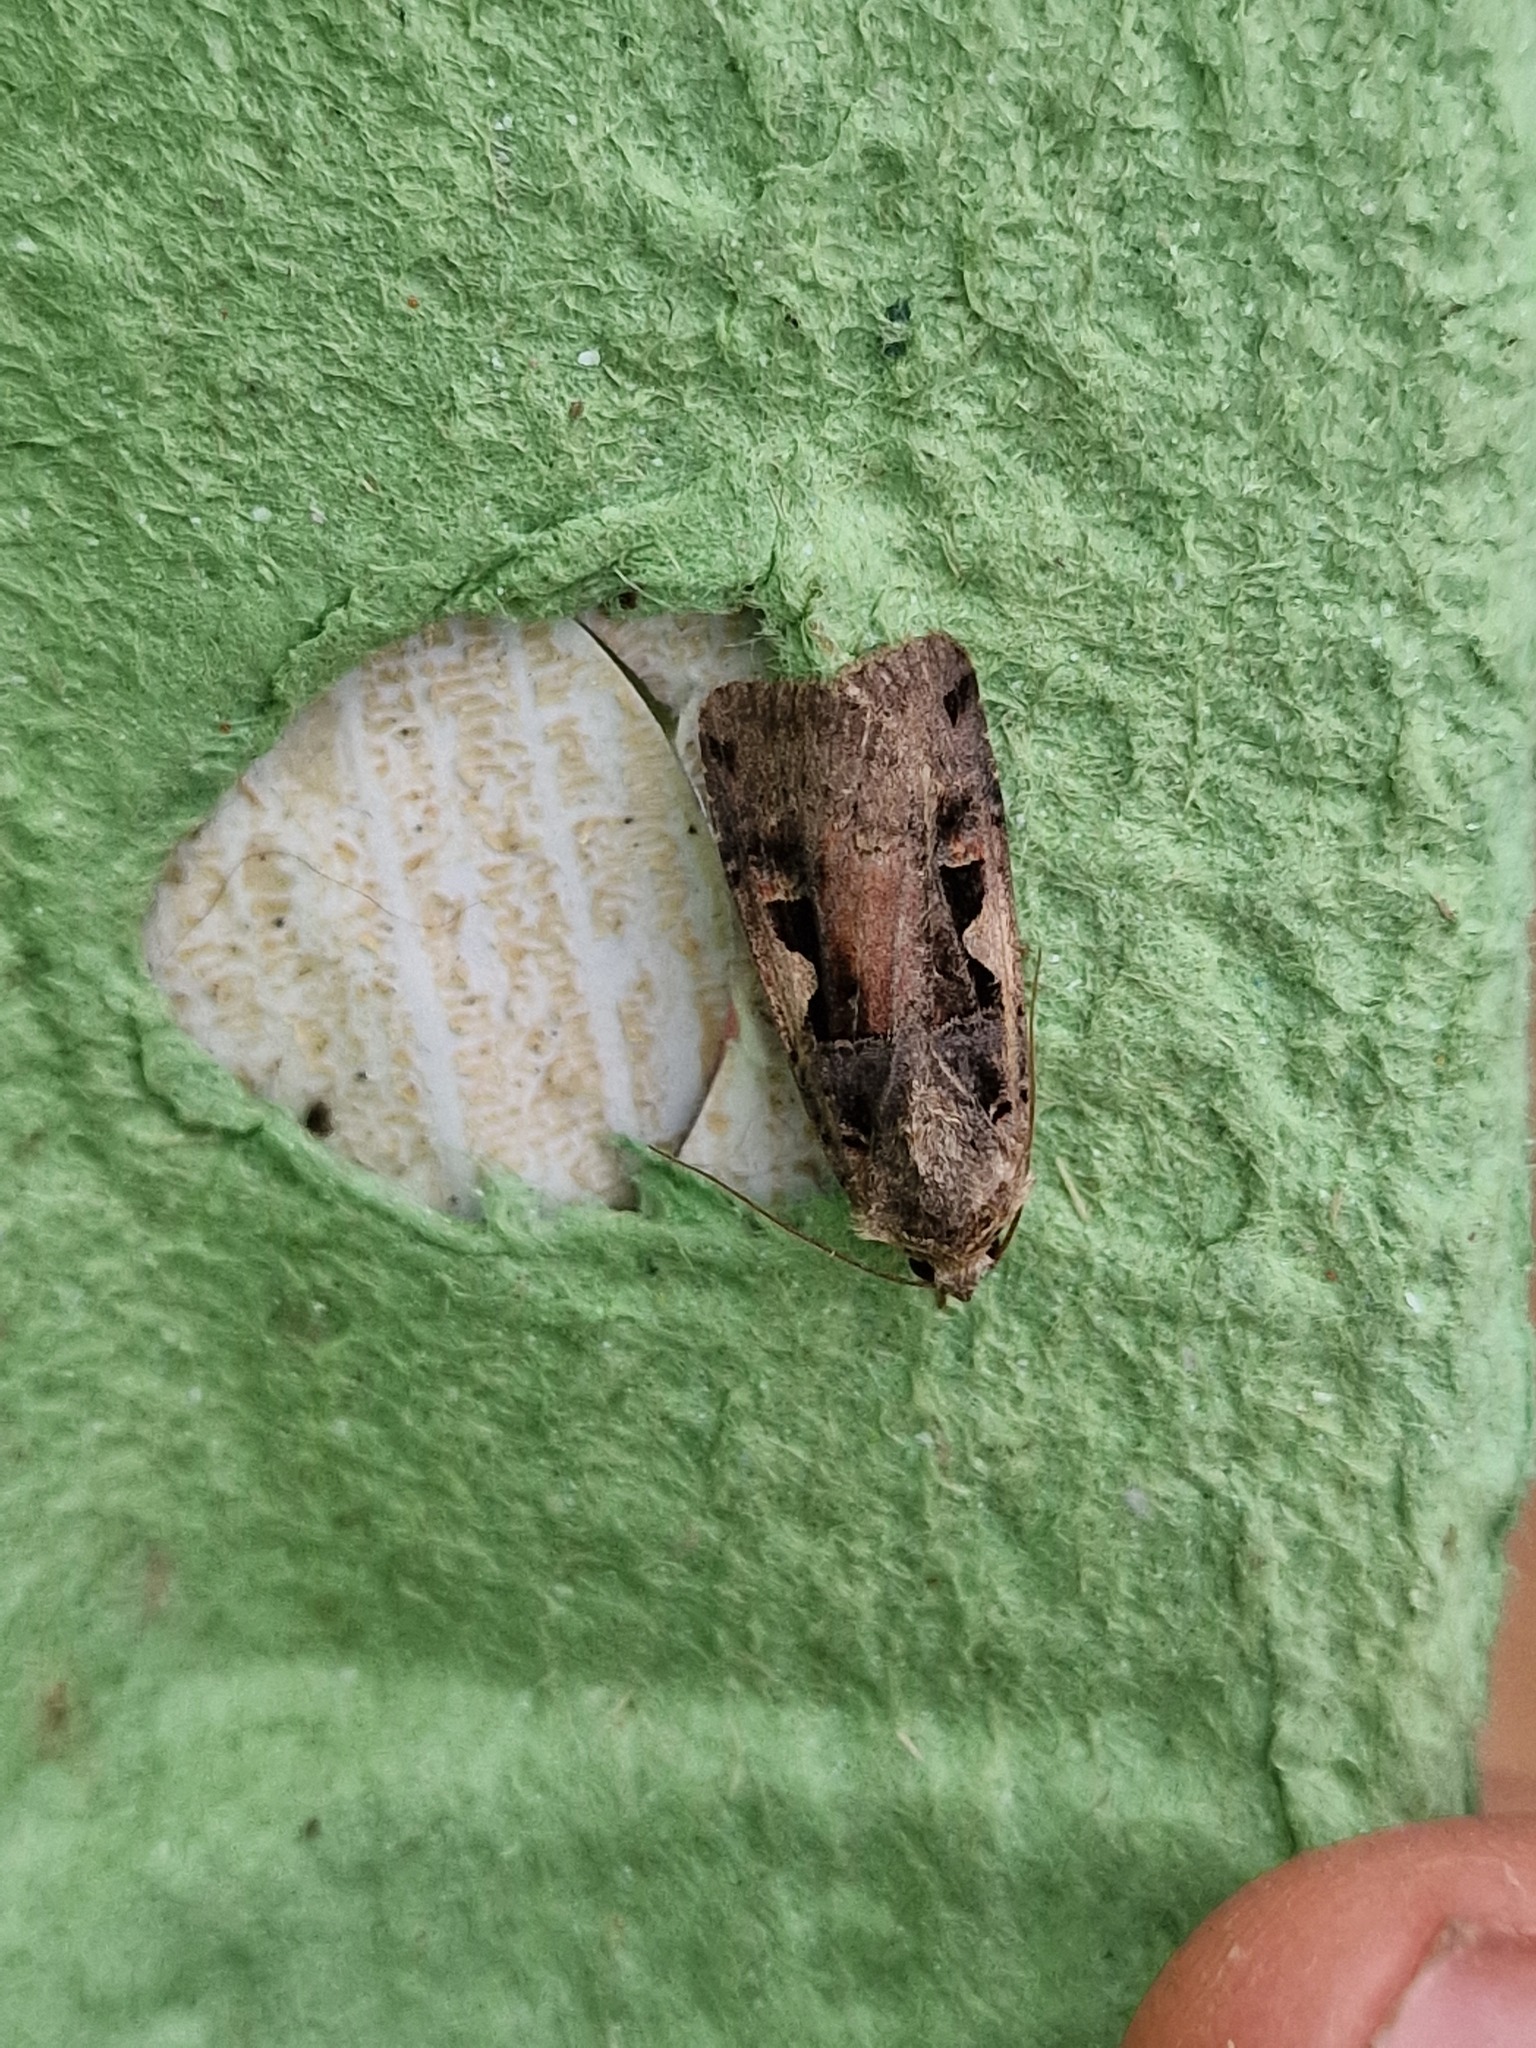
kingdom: Animalia
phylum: Arthropoda
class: Insecta
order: Lepidoptera
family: Noctuidae
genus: Xestia
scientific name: Xestia c-nigrum
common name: Setaceous hebrew character
